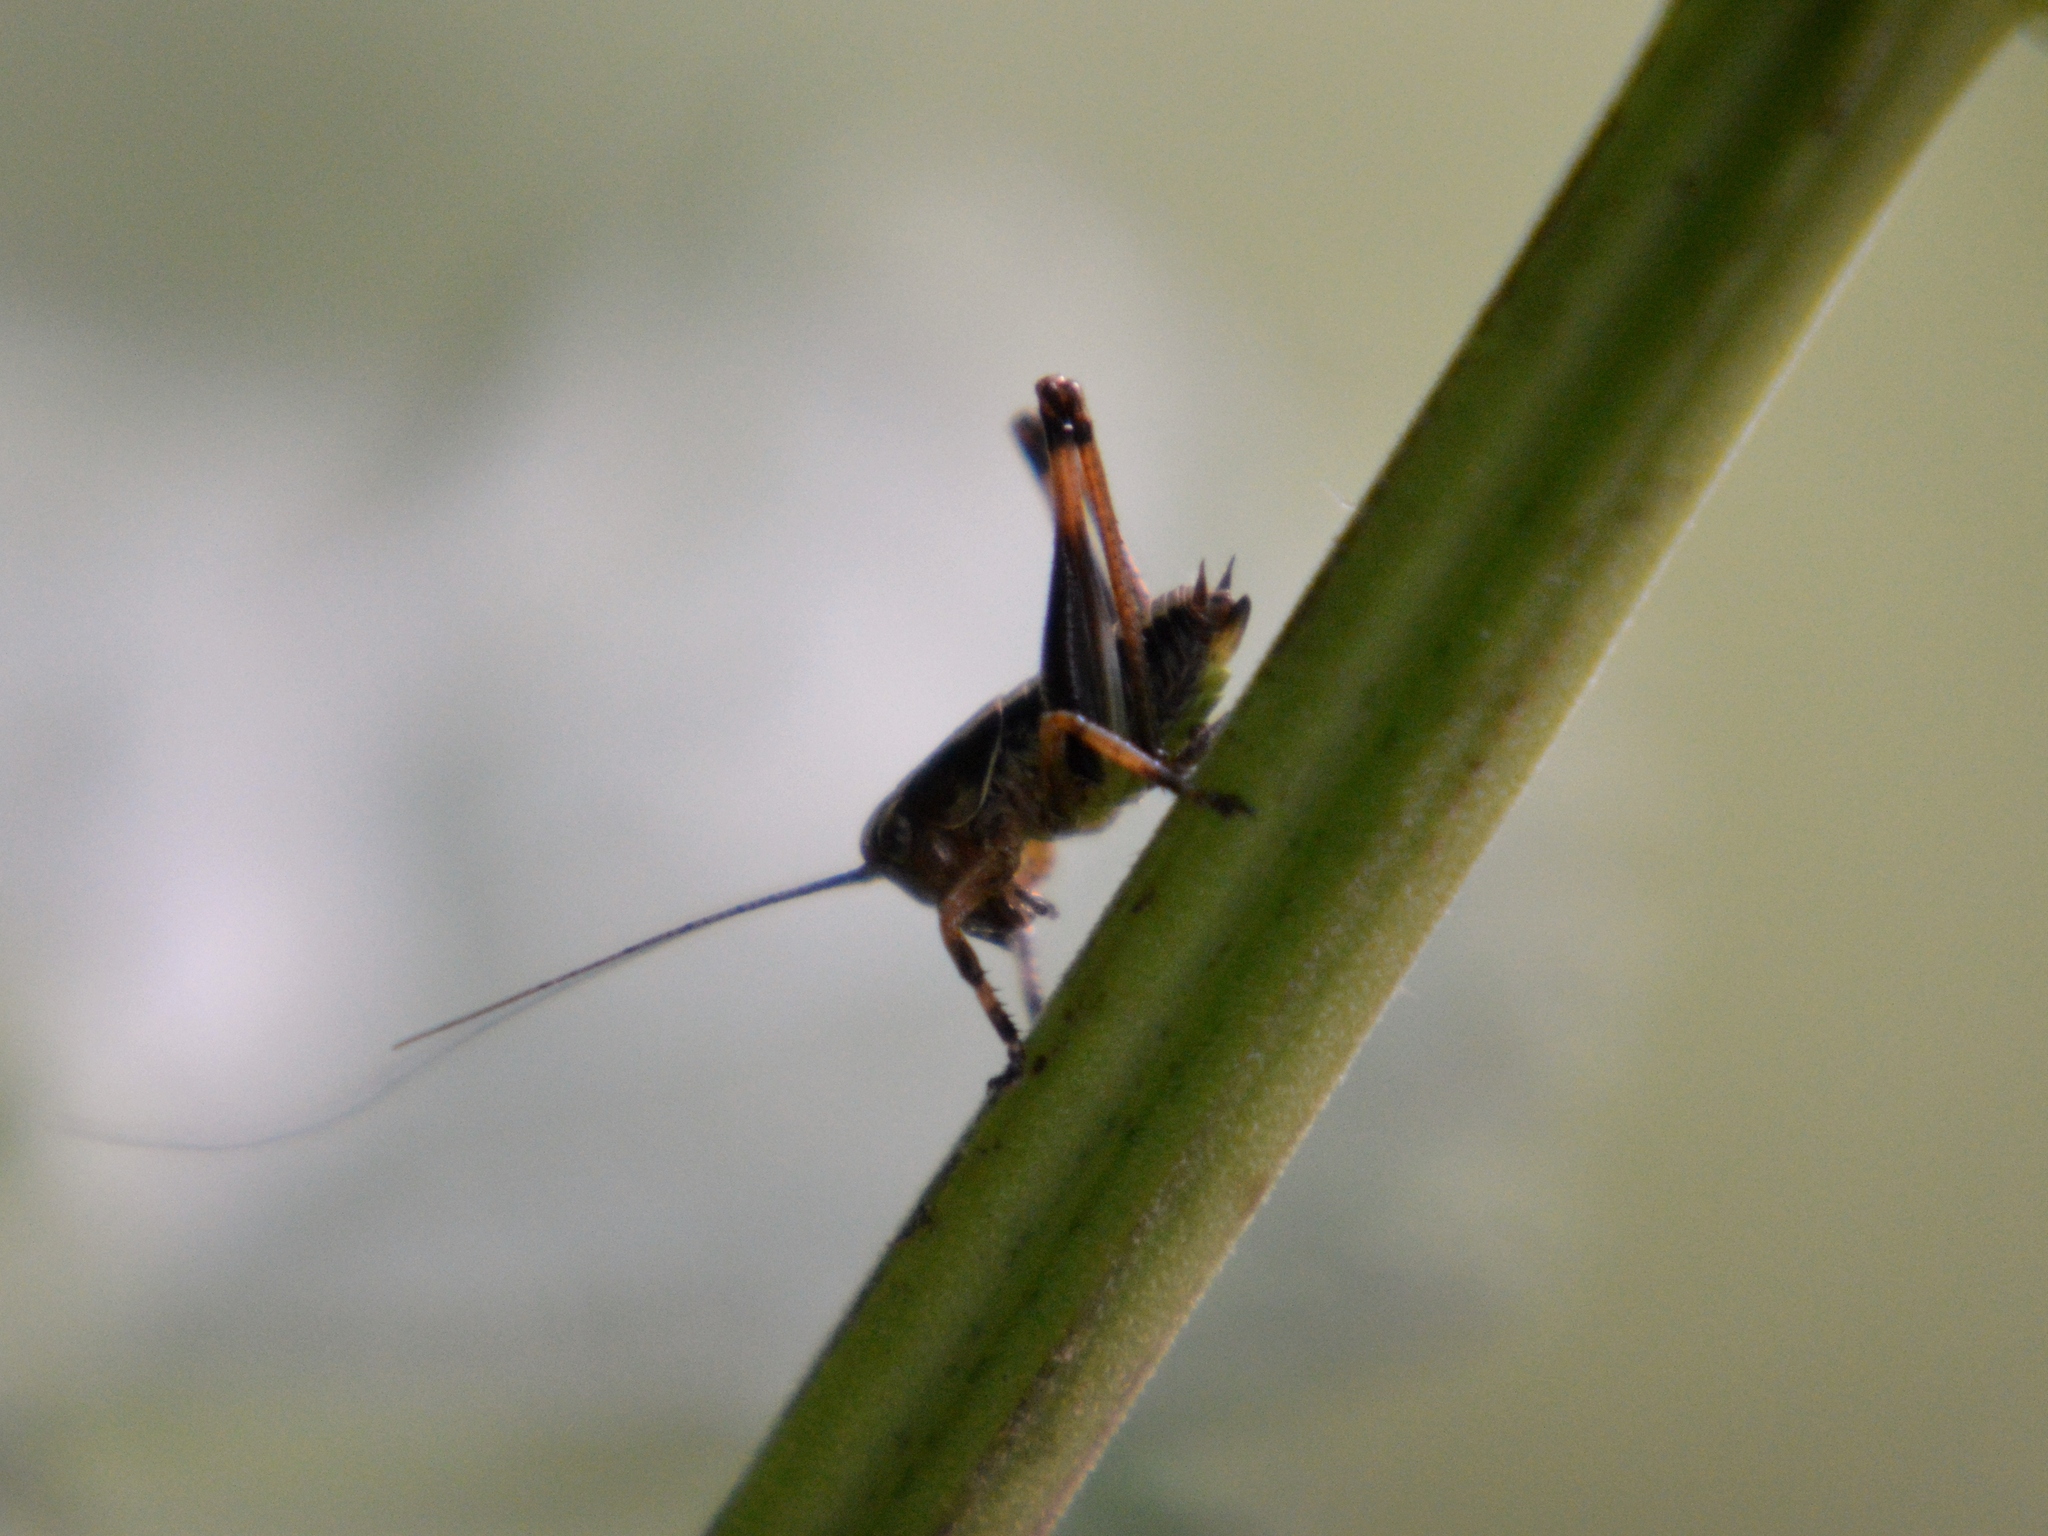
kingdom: Animalia
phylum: Arthropoda
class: Insecta
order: Orthoptera
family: Tettigoniidae
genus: Pholidoptera
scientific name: Pholidoptera griseoaptera
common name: Dark bush-cricket
